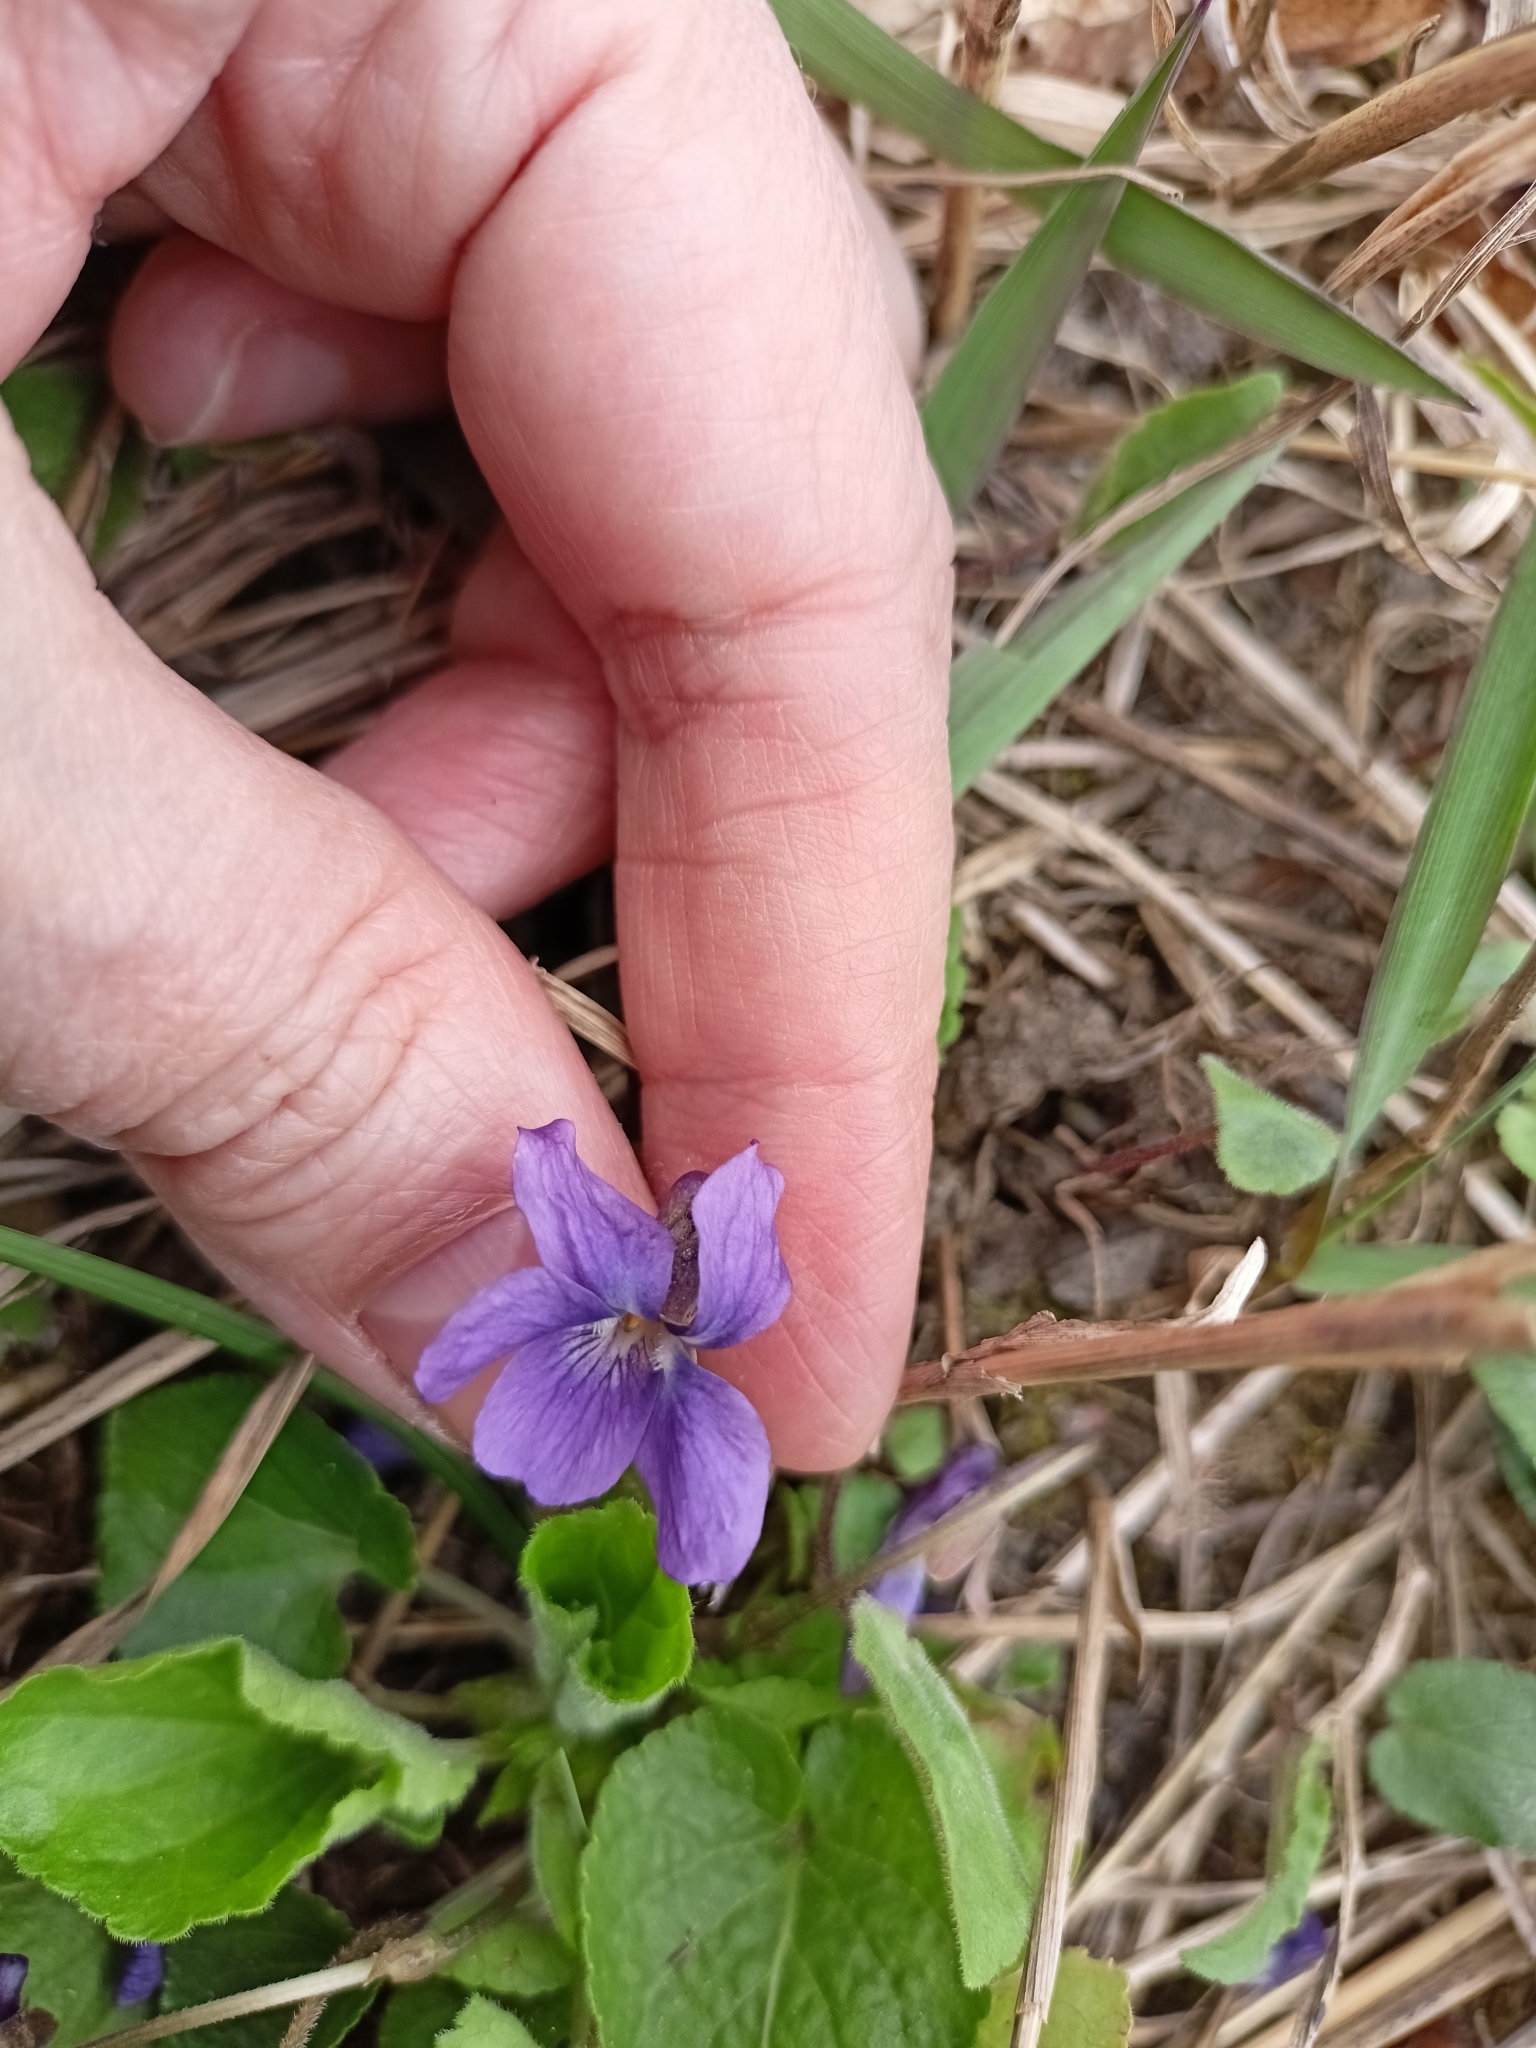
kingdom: Plantae
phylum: Tracheophyta
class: Magnoliopsida
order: Malpighiales
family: Violaceae
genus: Viola
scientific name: Viola odorata
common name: Sweet violet
